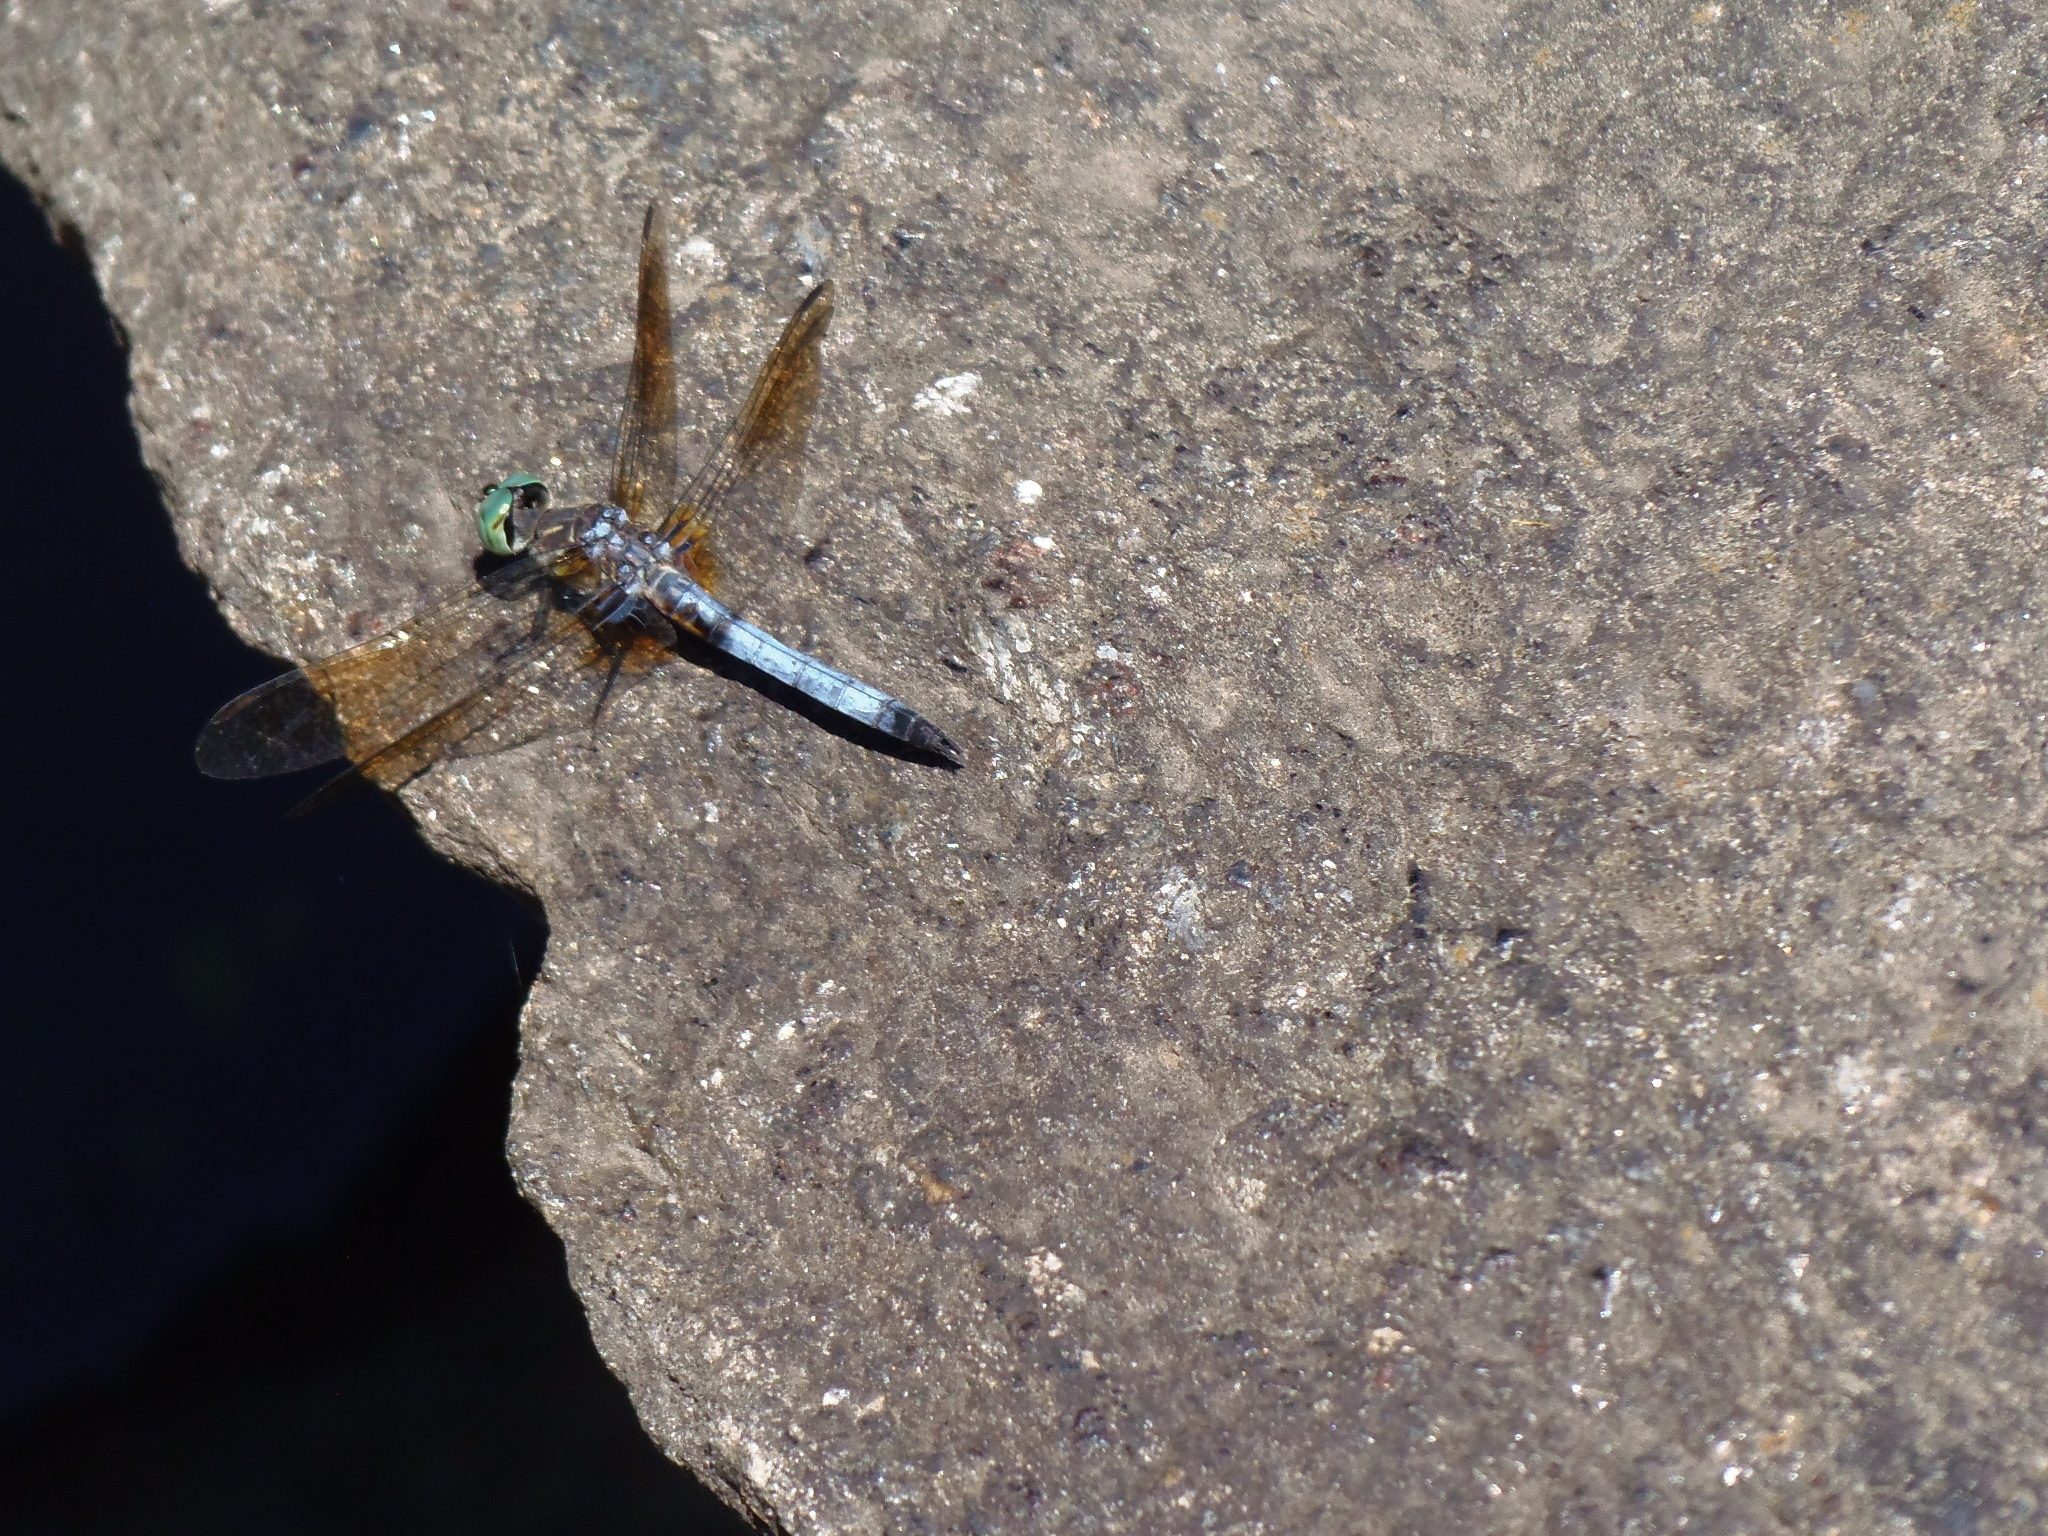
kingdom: Animalia
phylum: Arthropoda
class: Insecta
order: Odonata
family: Libellulidae
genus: Pachydiplax
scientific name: Pachydiplax longipennis
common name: Blue dasher
